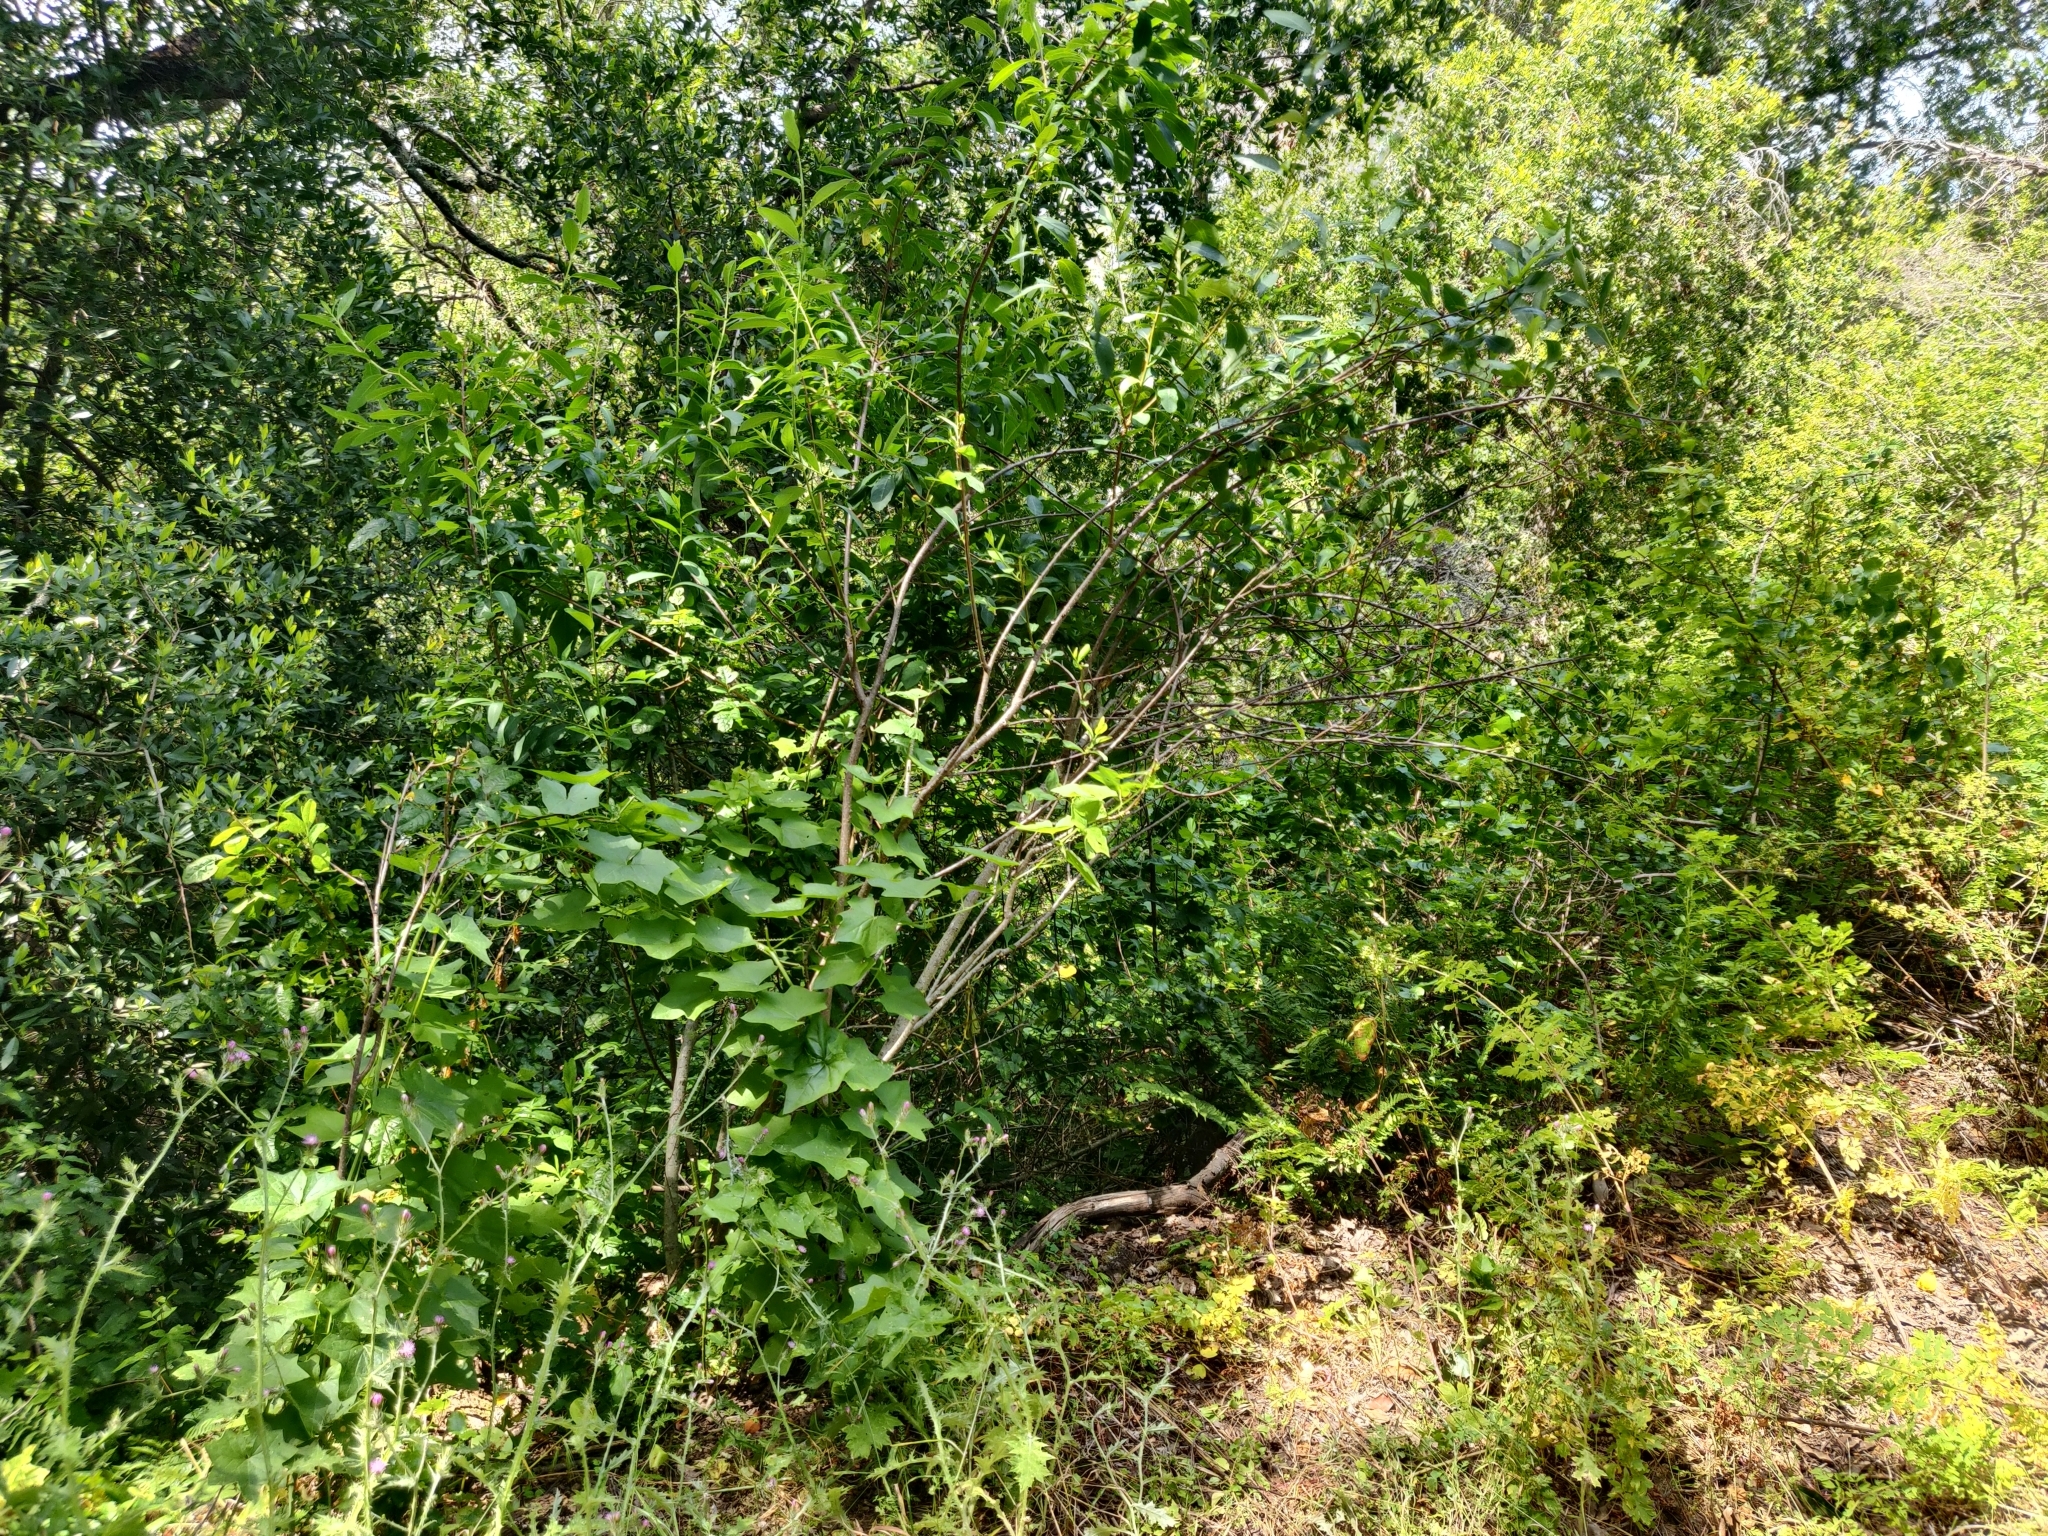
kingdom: Plantae
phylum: Tracheophyta
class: Magnoliopsida
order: Rosales
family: Rosaceae
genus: Oemleria
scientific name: Oemleria cerasiformis
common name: Osoberry
